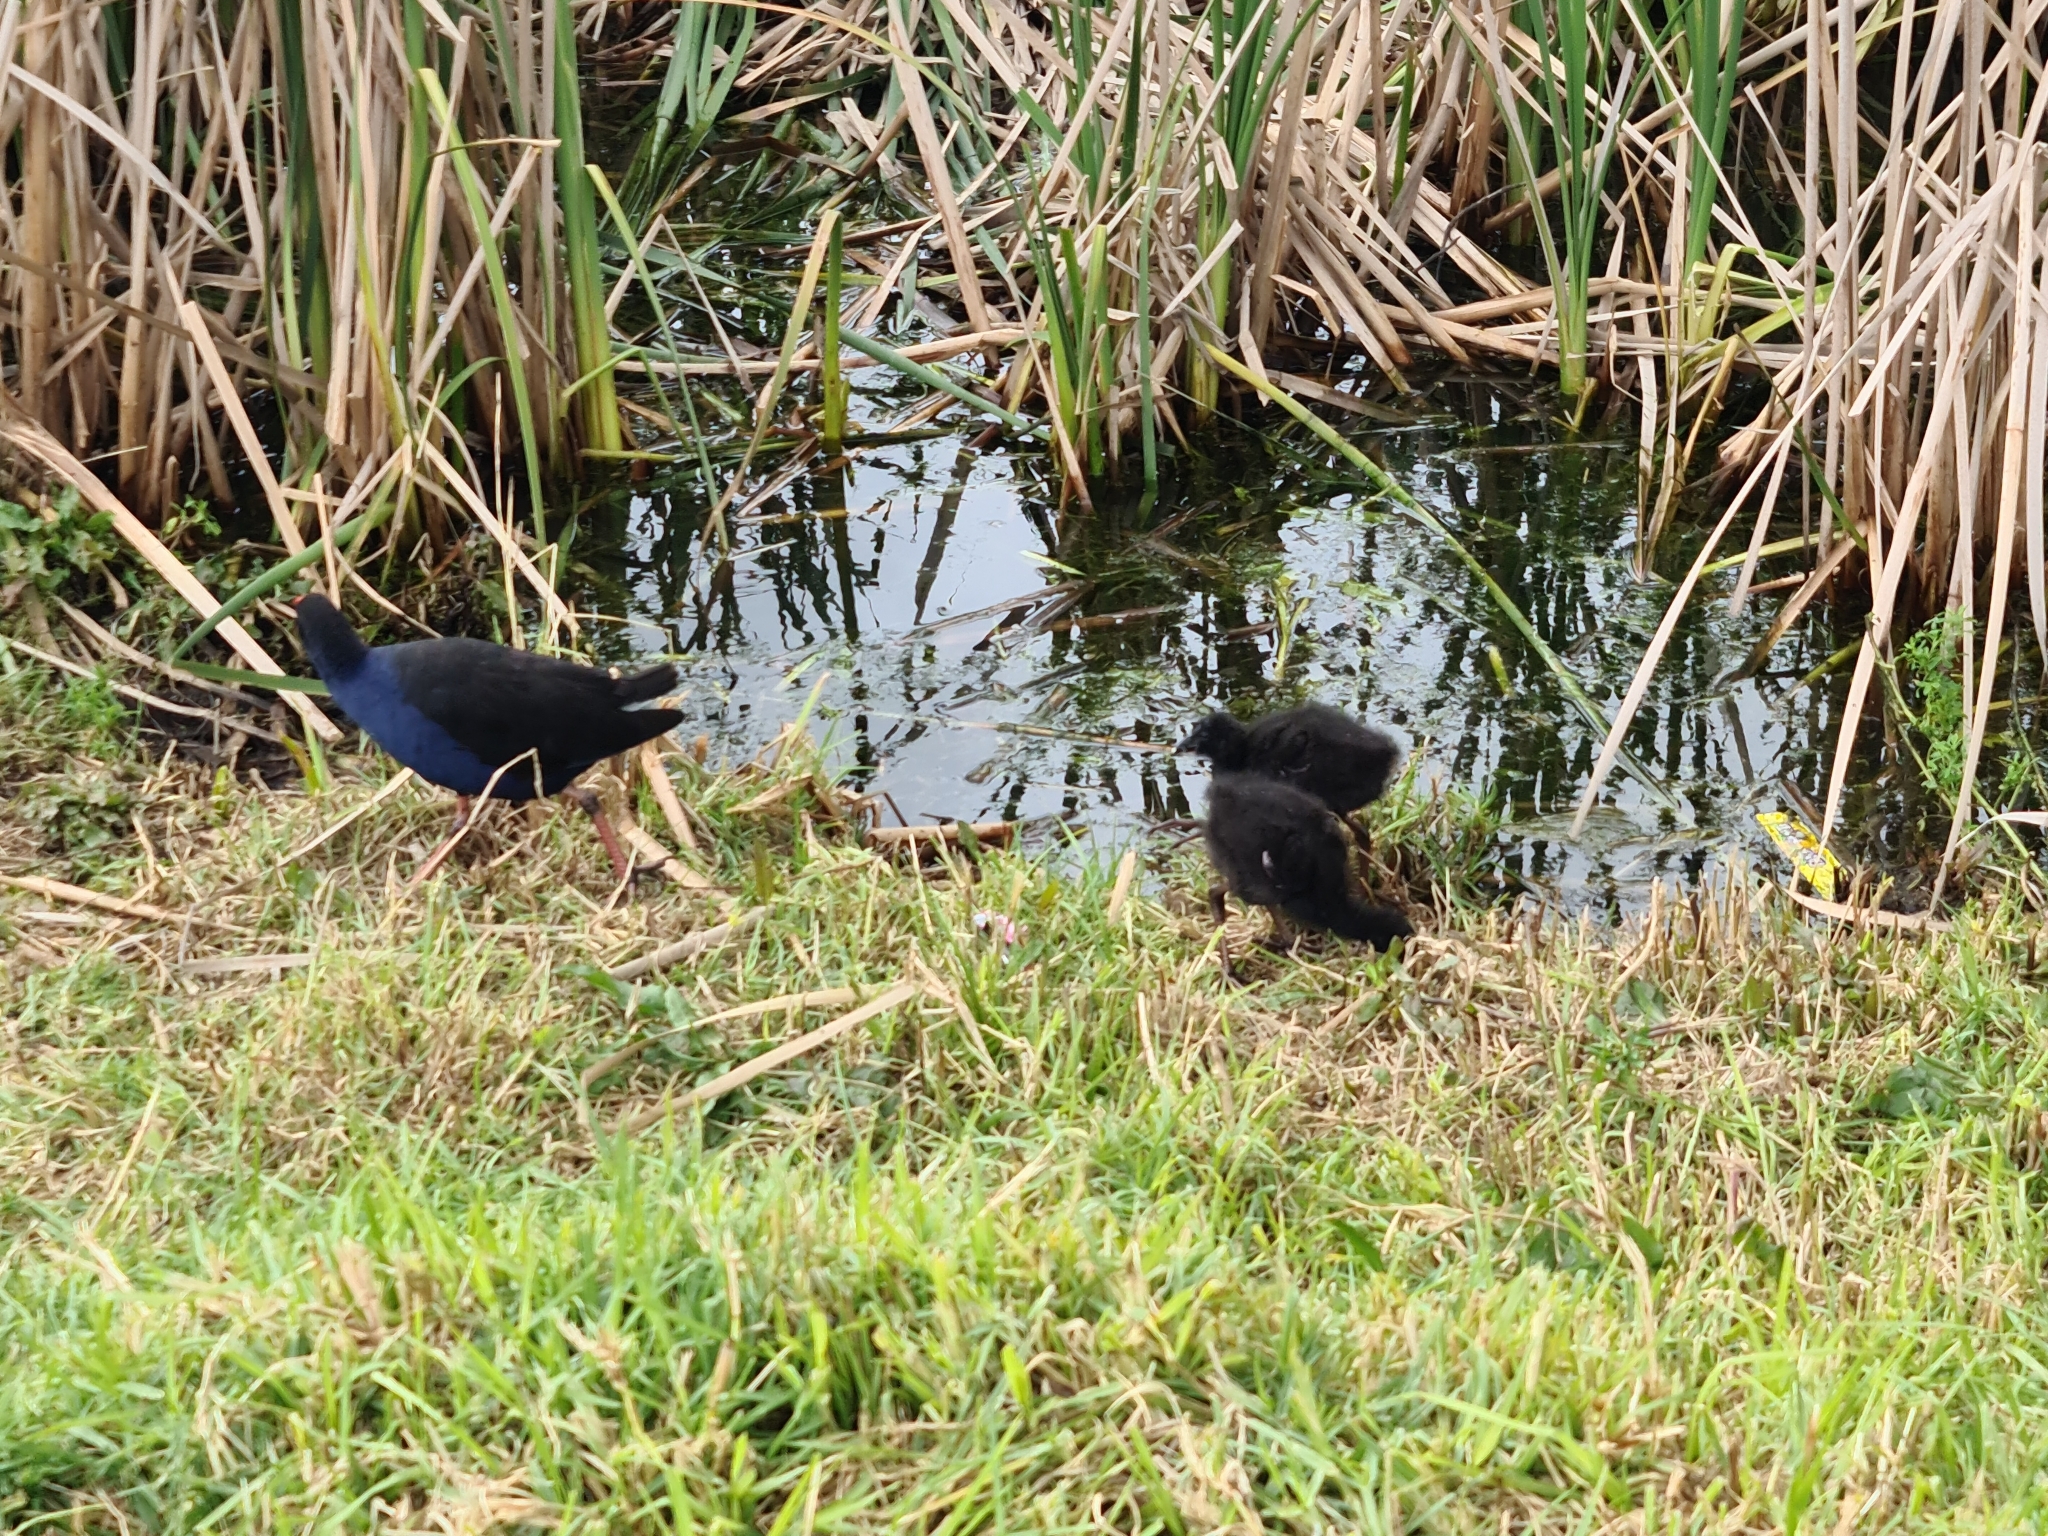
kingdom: Animalia
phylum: Chordata
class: Aves
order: Gruiformes
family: Rallidae
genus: Porphyrio
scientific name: Porphyrio melanotus
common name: Australasian swamphen
